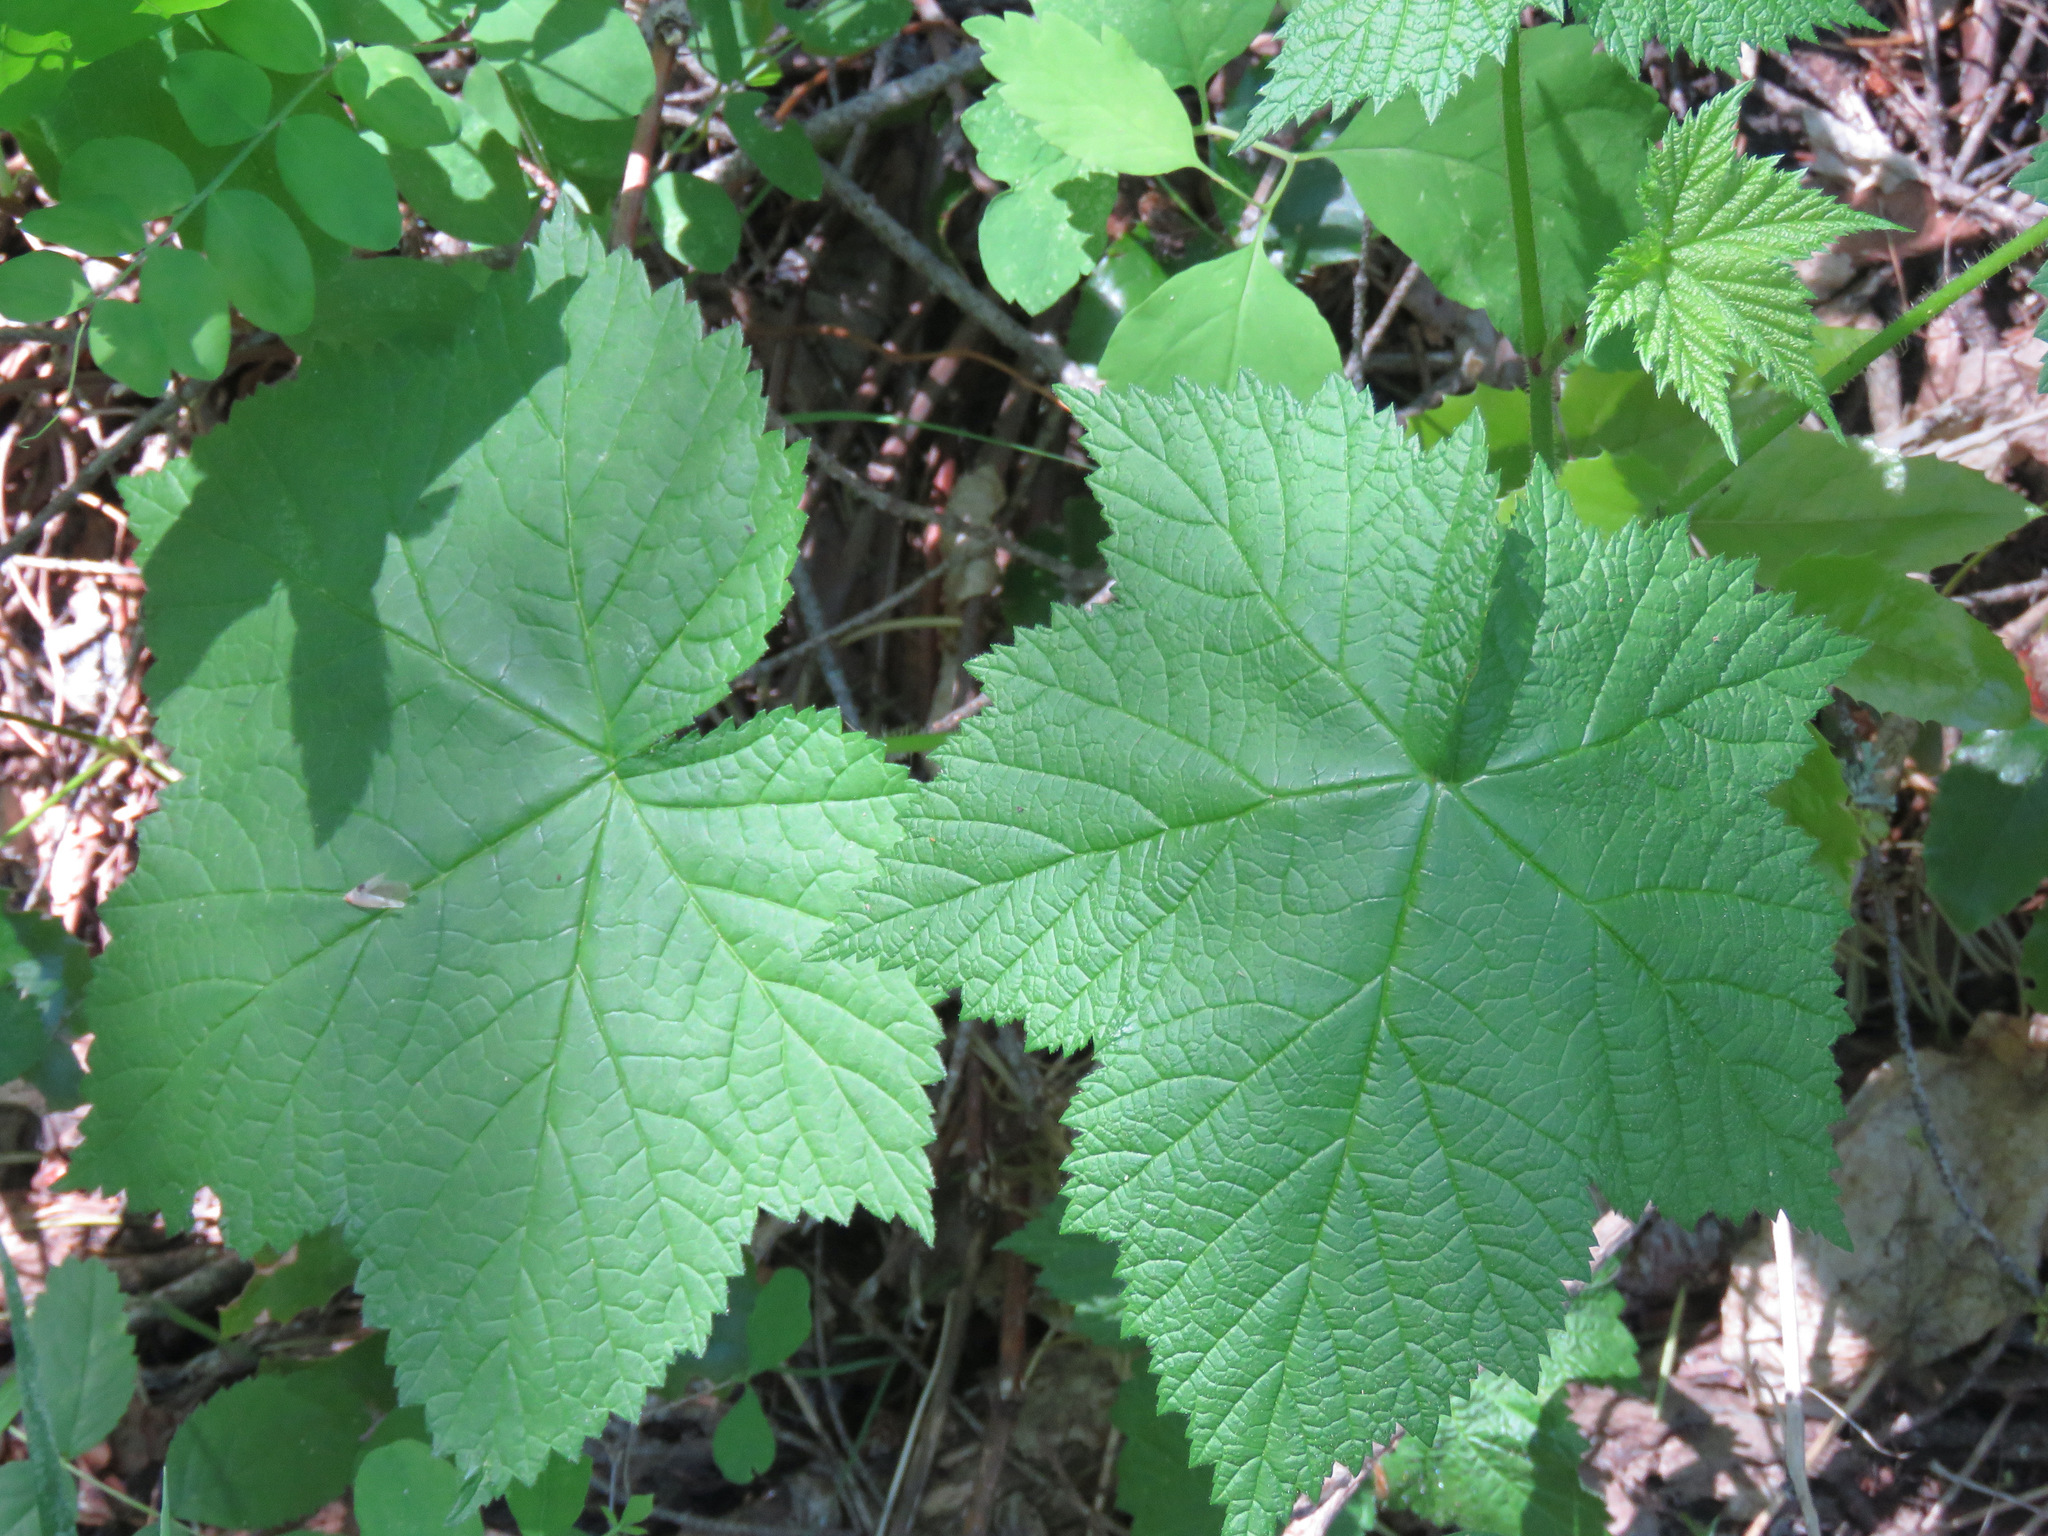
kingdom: Plantae
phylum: Tracheophyta
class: Magnoliopsida
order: Rosales
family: Rosaceae
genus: Rubus
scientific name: Rubus parviflorus
